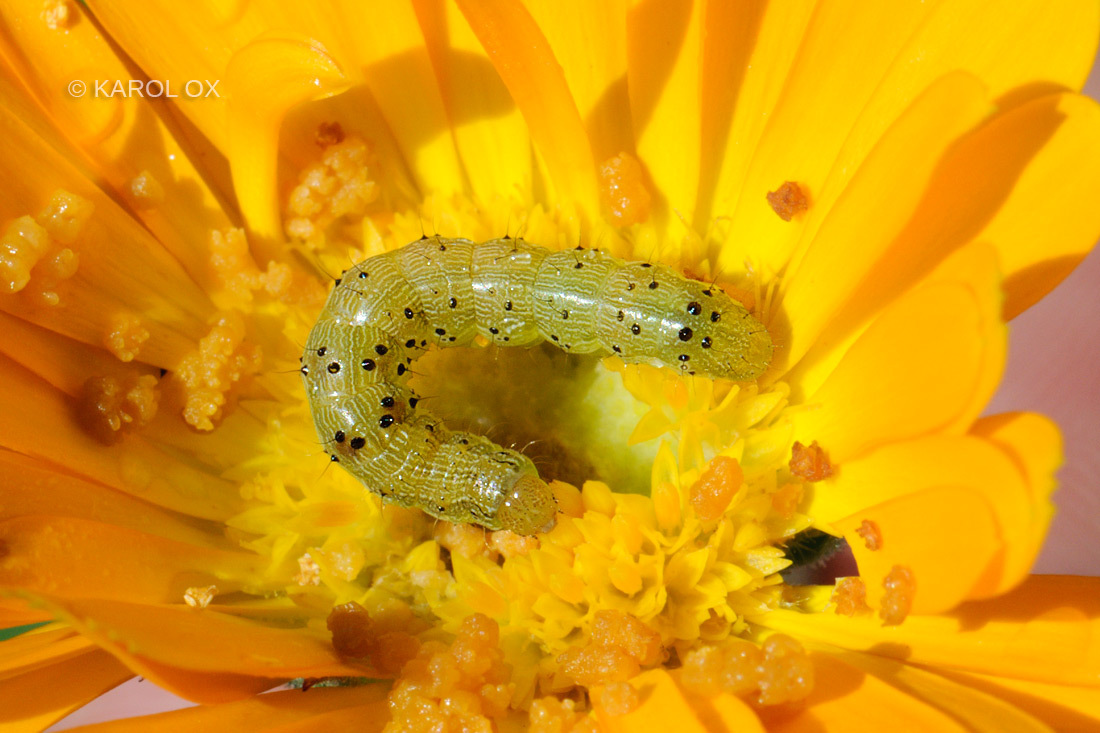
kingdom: Animalia
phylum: Arthropoda
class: Insecta
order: Lepidoptera
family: Noctuidae
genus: Helicoverpa
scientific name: Helicoverpa armigera
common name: Cotton bollworm
